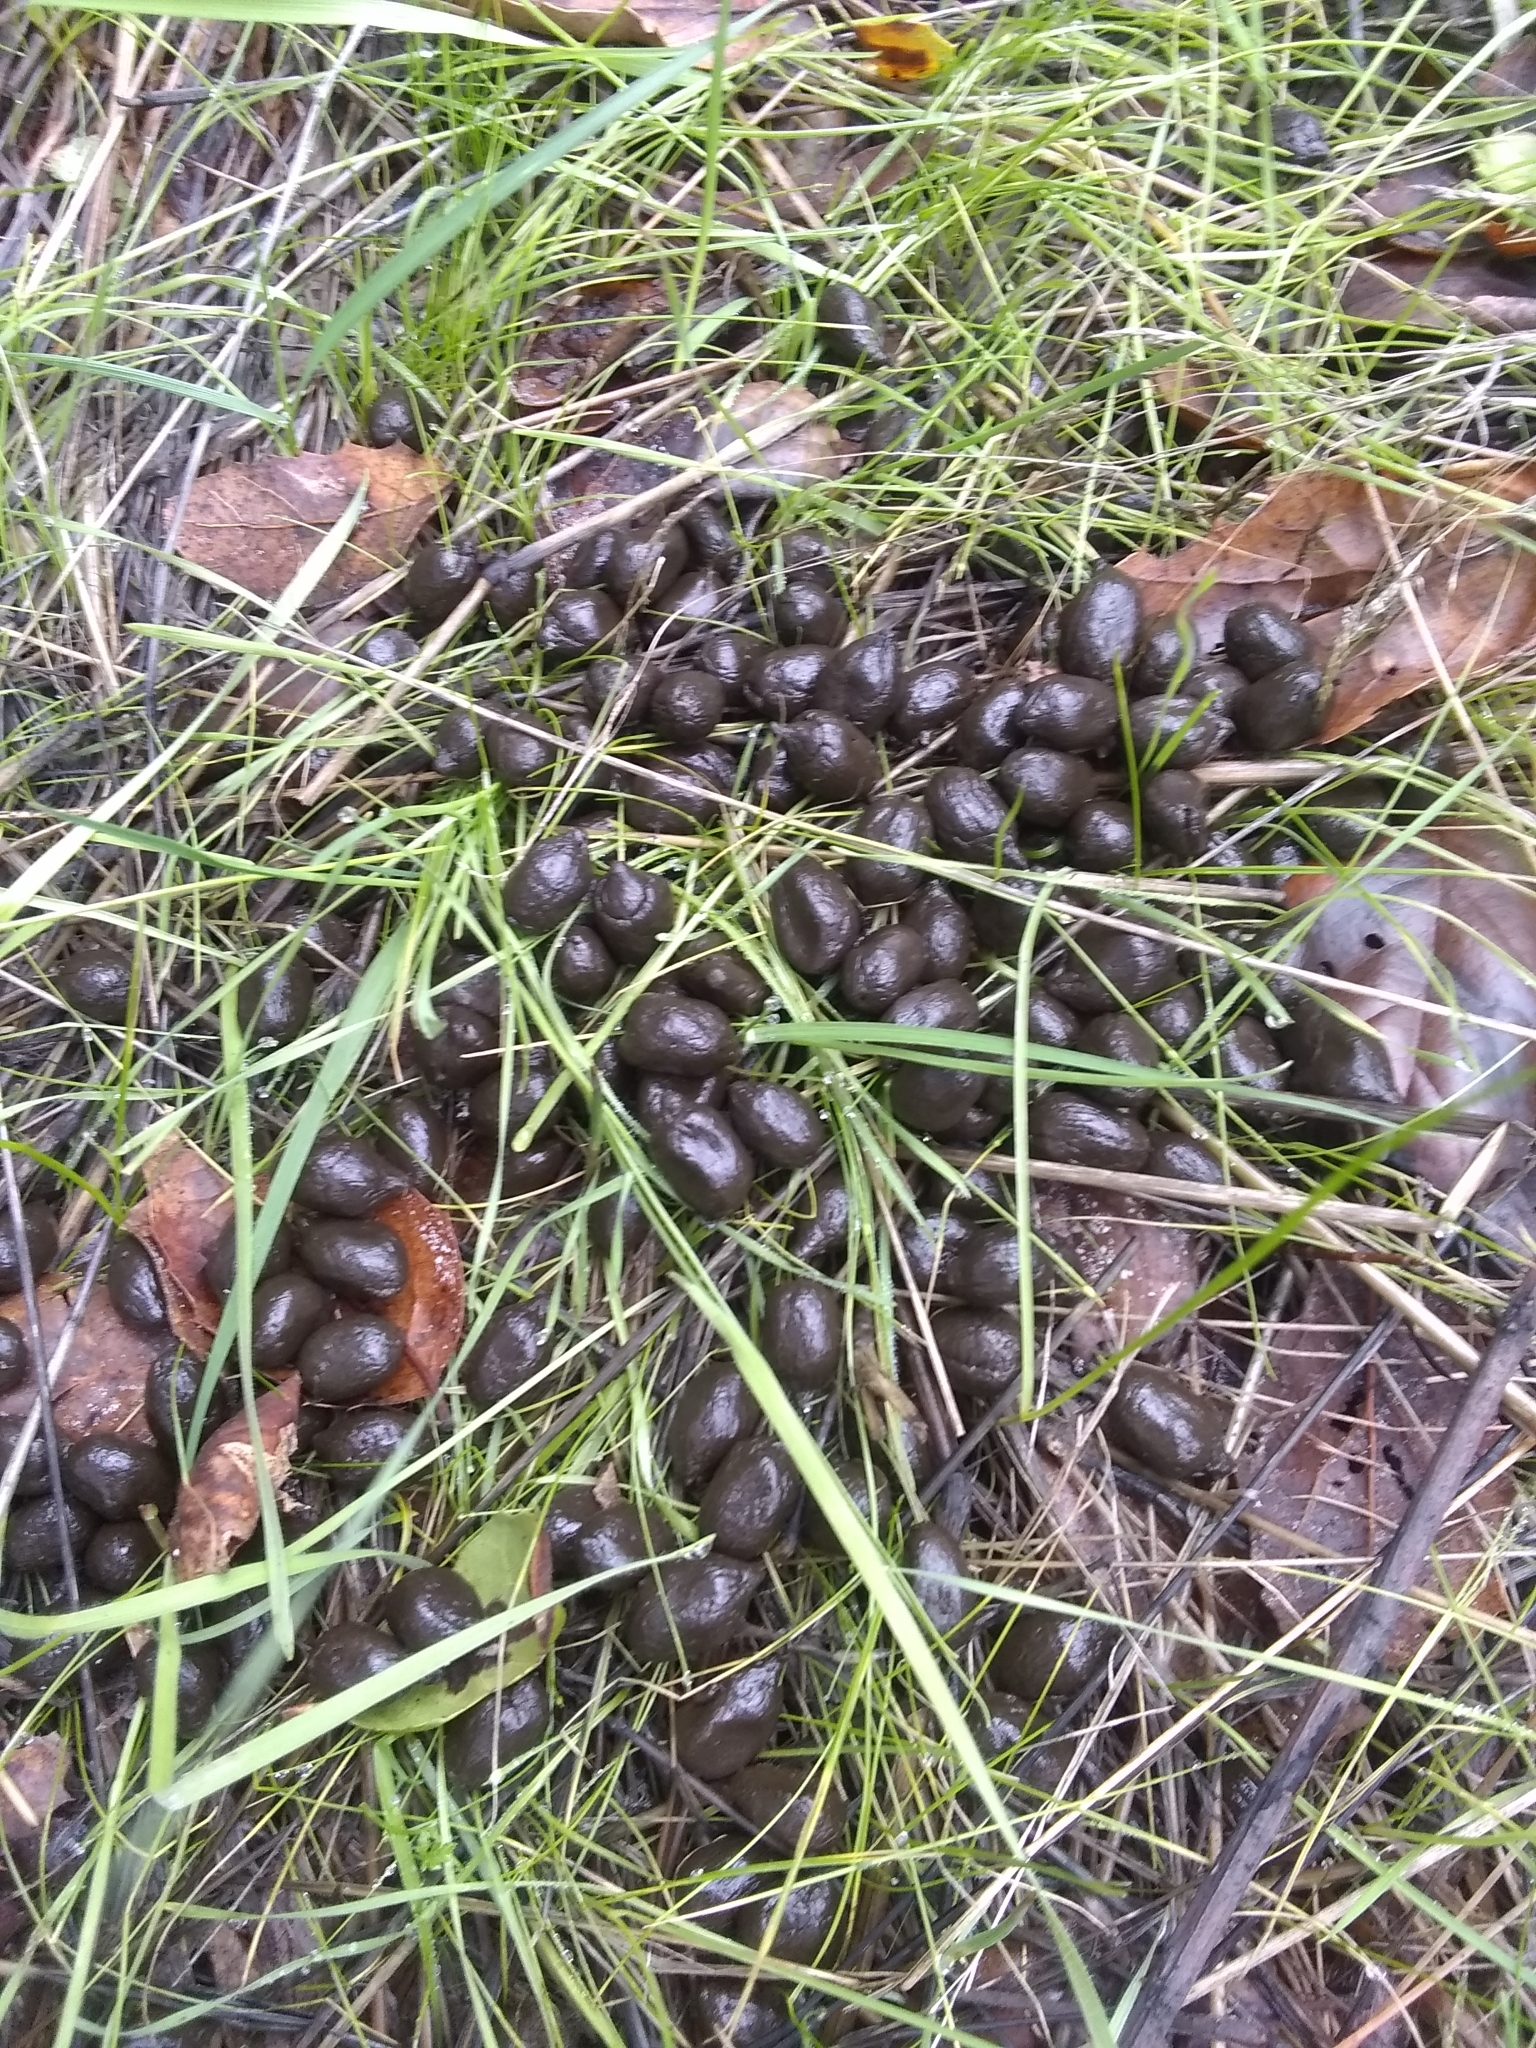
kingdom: Animalia
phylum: Chordata
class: Mammalia
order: Artiodactyla
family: Cervidae
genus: Odocoileus
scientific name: Odocoileus hemionus
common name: Mule deer
